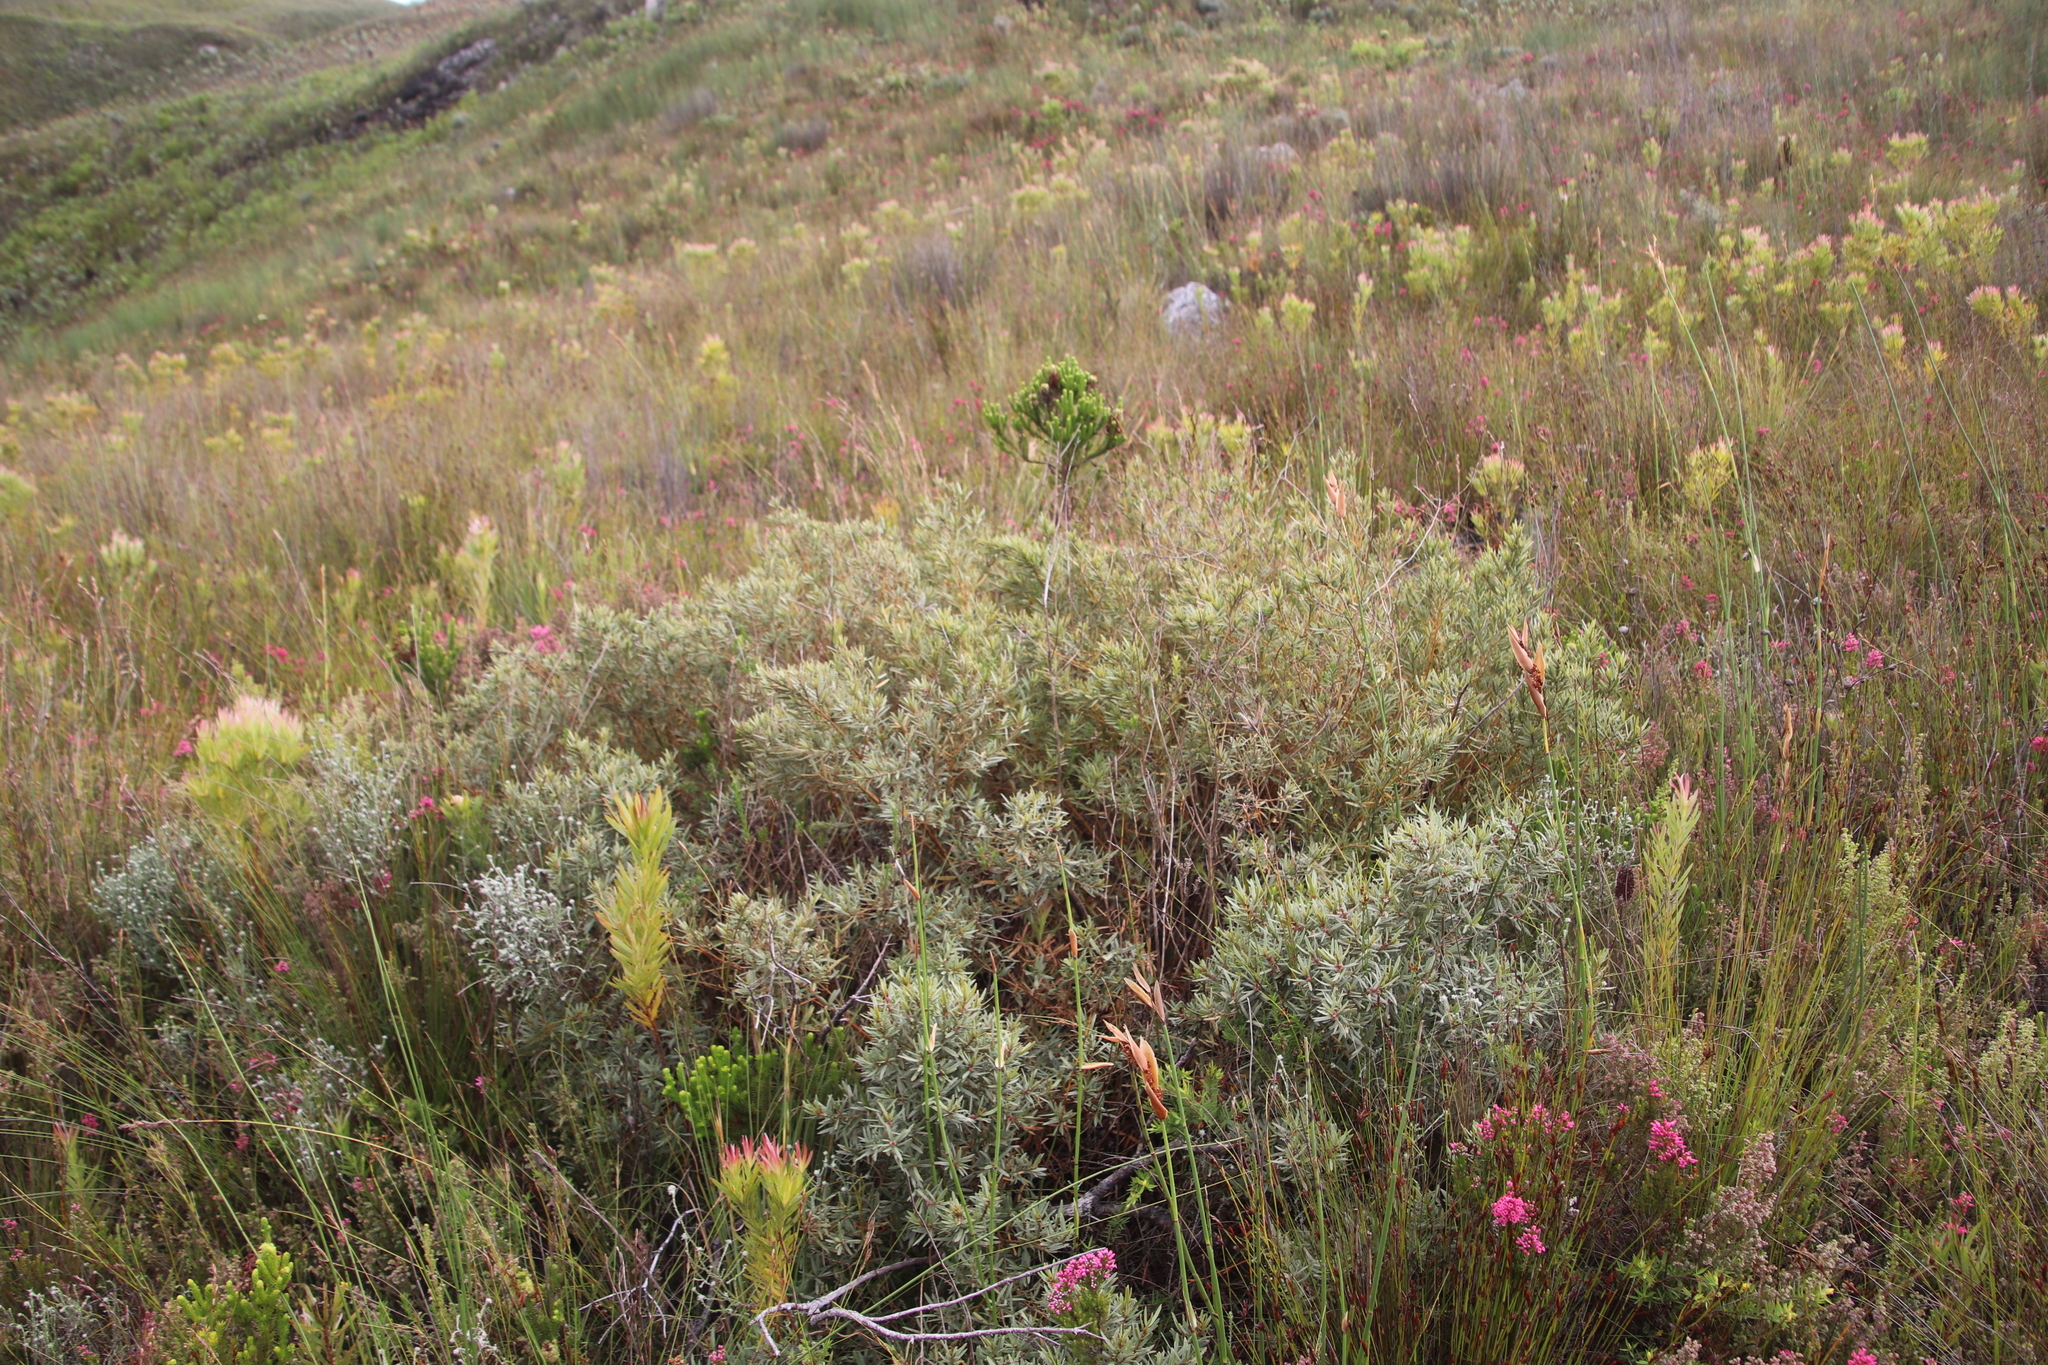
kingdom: Plantae
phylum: Tracheophyta
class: Magnoliopsida
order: Cornales
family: Grubbiaceae
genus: Grubbia
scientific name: Grubbia tomentosa
